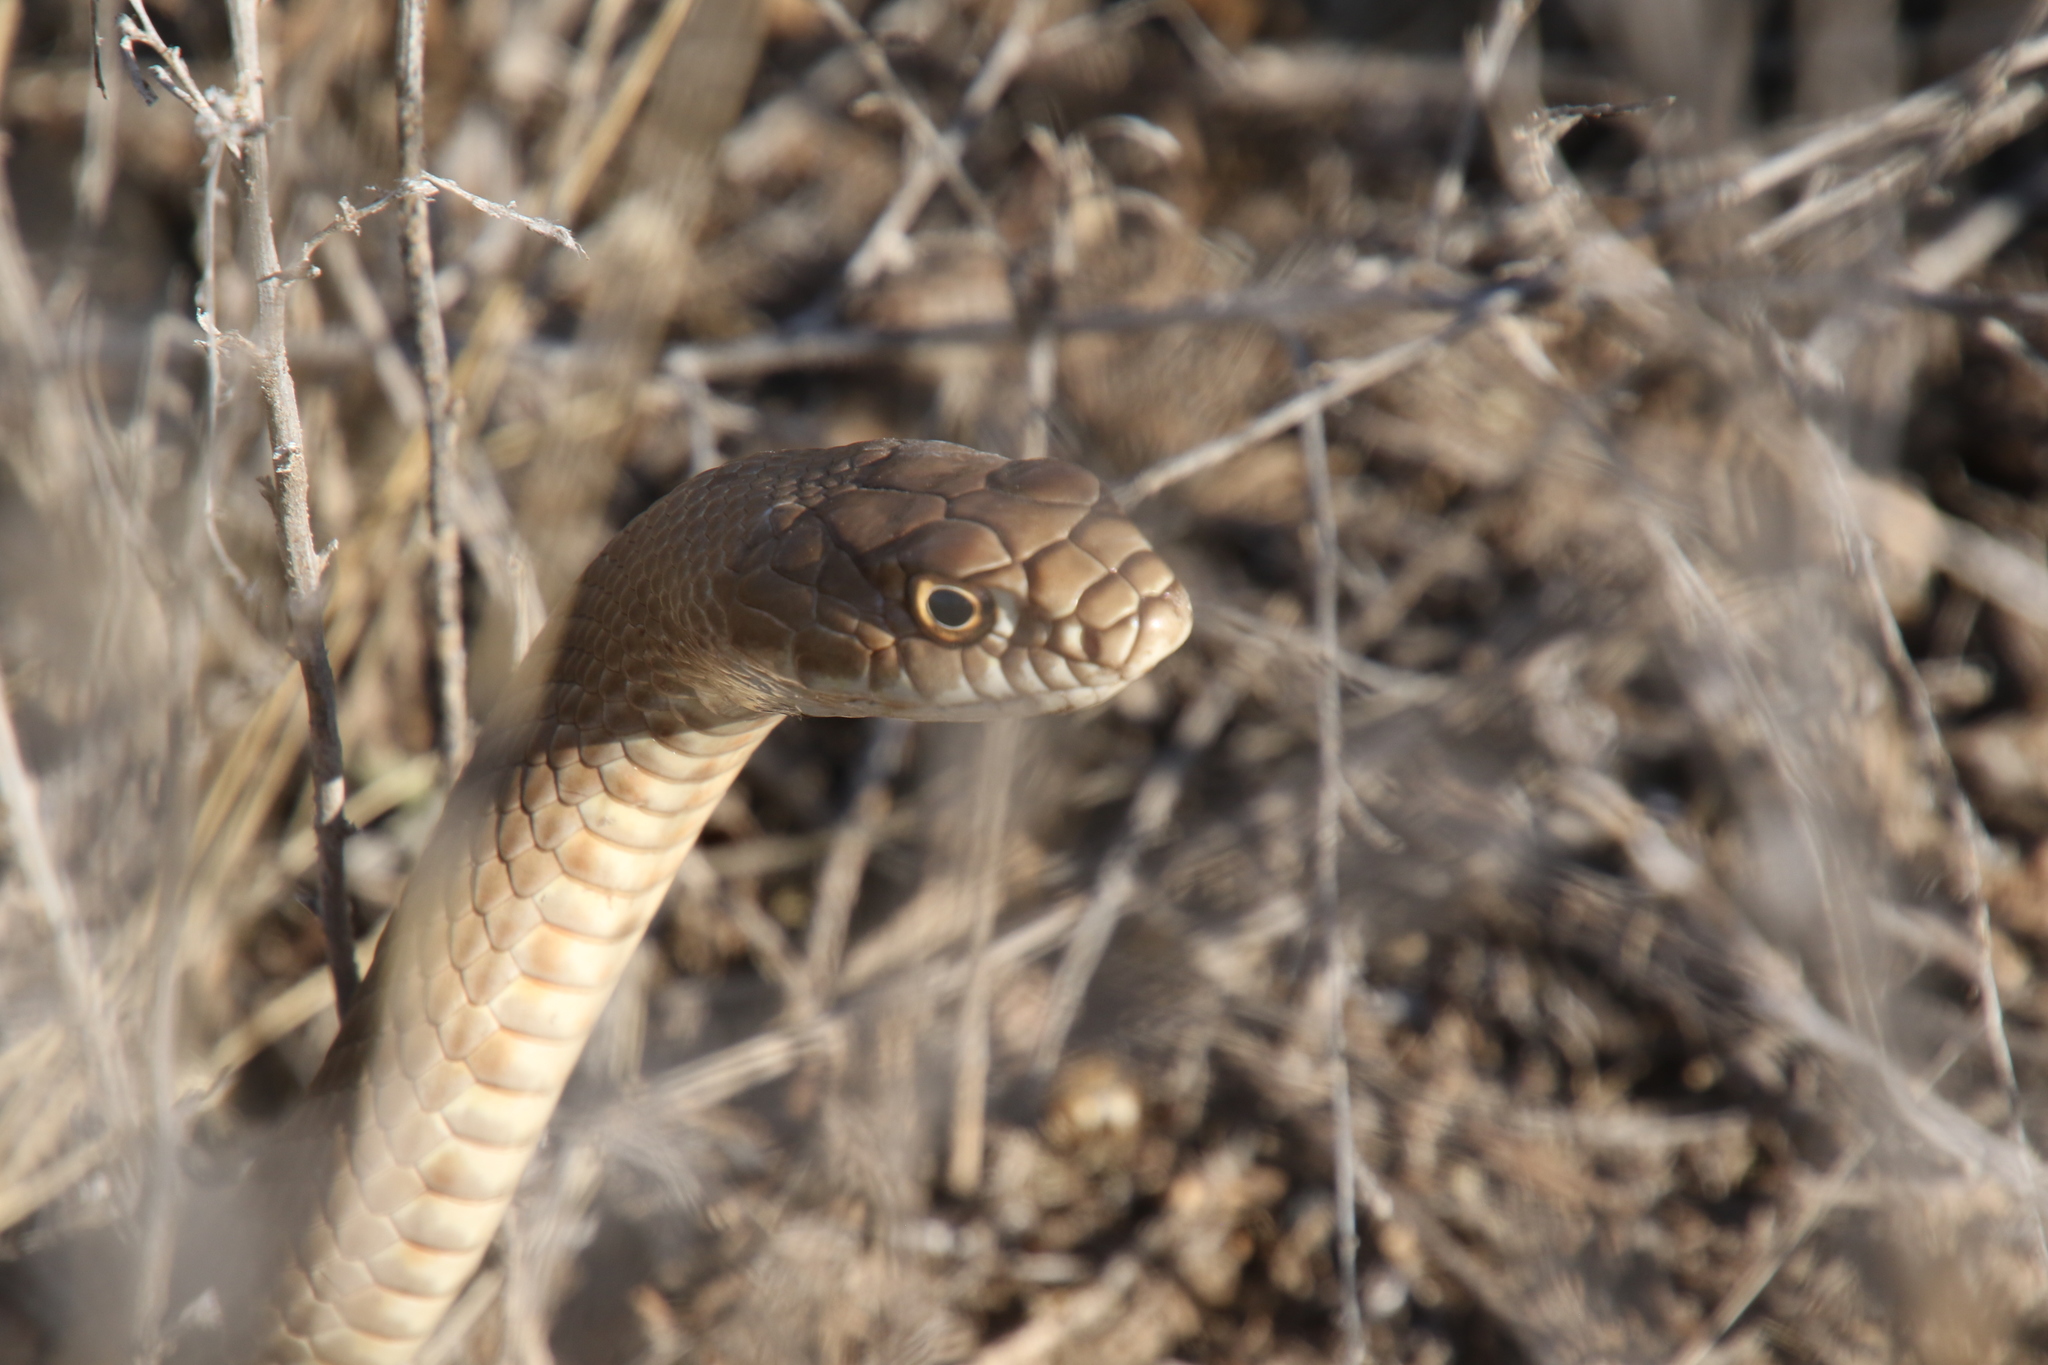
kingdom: Animalia
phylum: Chordata
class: Squamata
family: Colubridae
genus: Masticophis
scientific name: Masticophis flagellum
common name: Coachwhip
